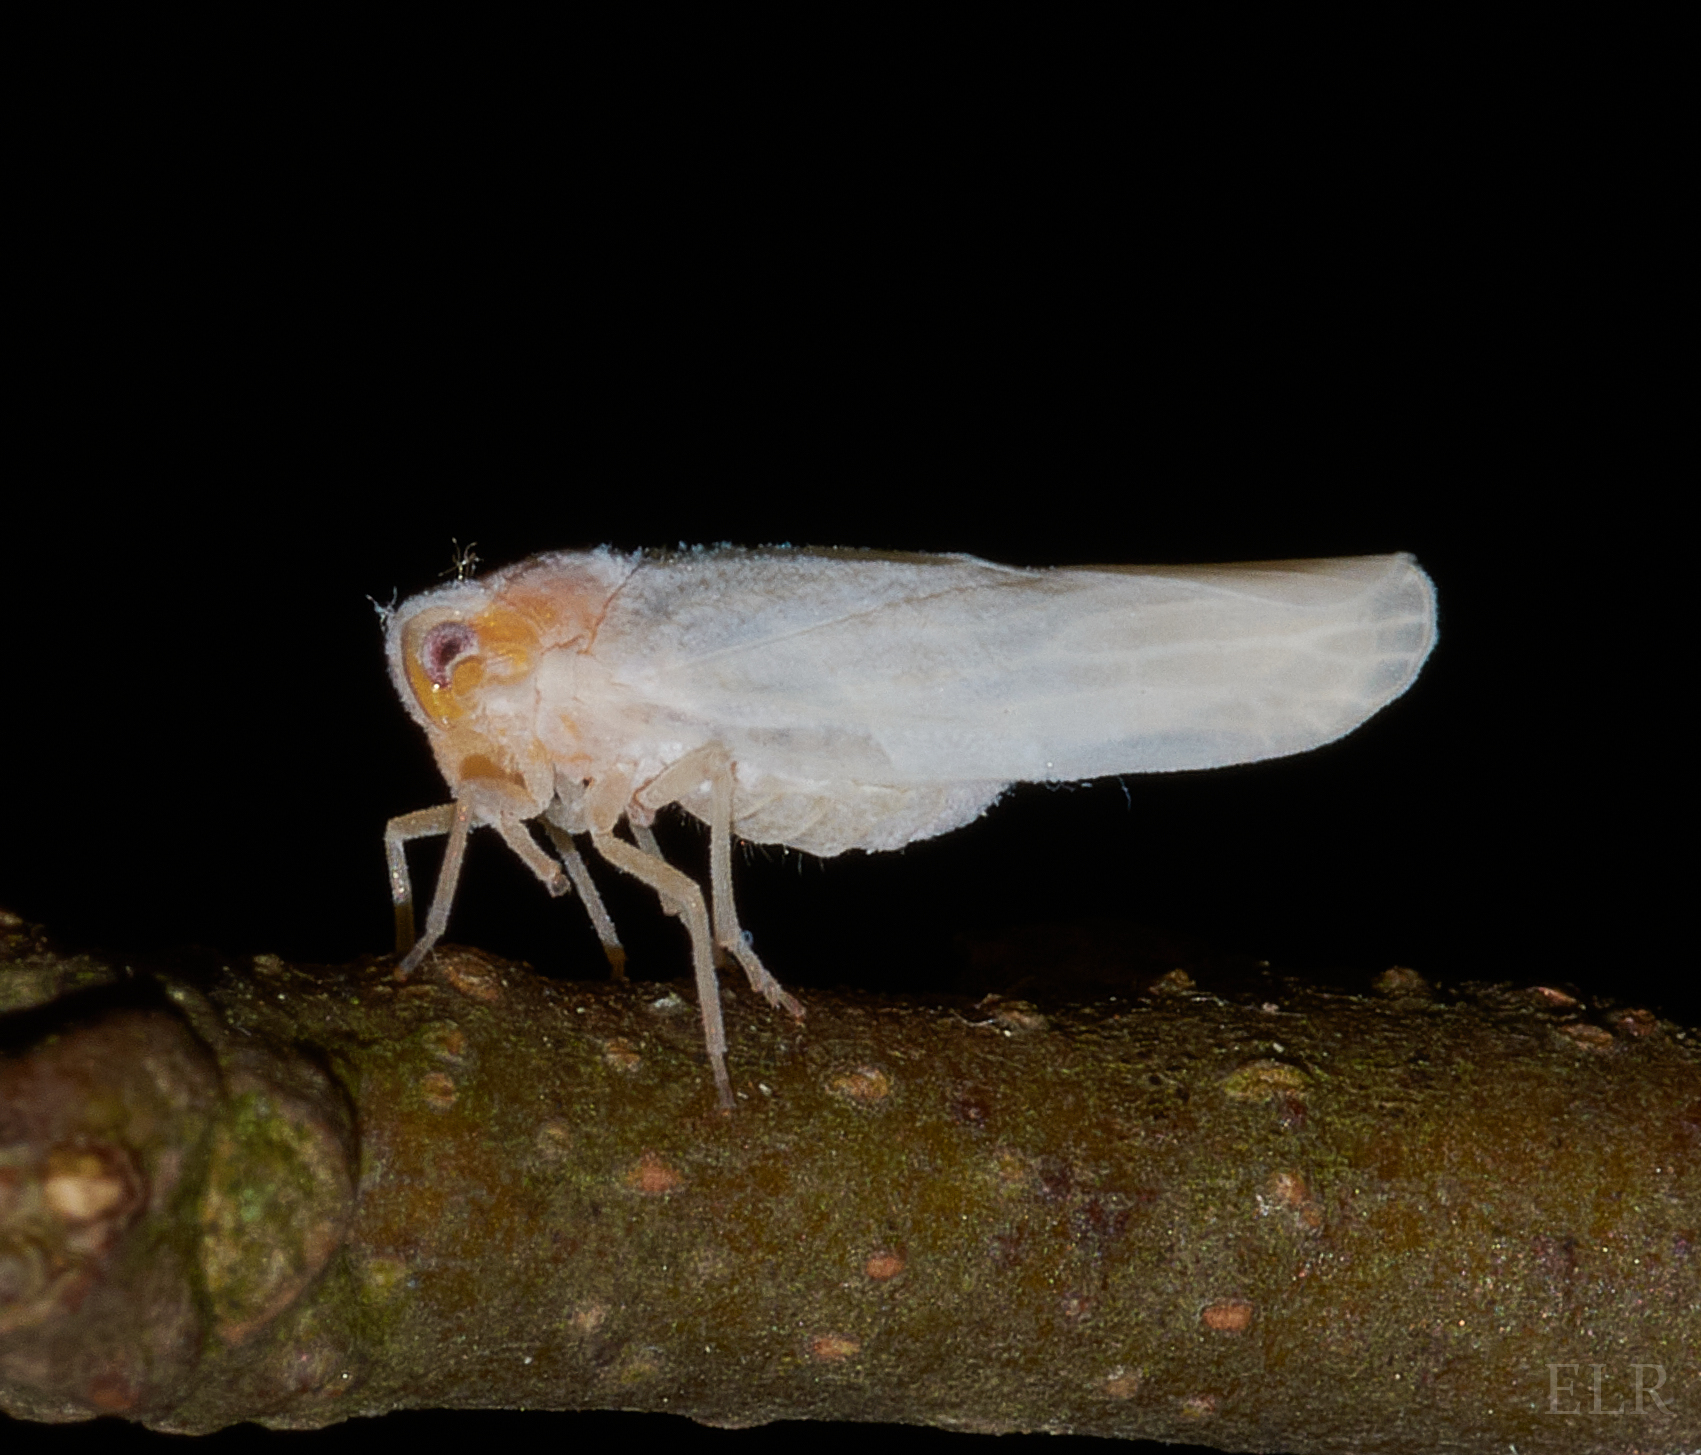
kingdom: Animalia
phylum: Arthropoda
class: Insecta
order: Hemiptera
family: Derbidae
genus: Neocenchrea
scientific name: Neocenchrea heidemanni
